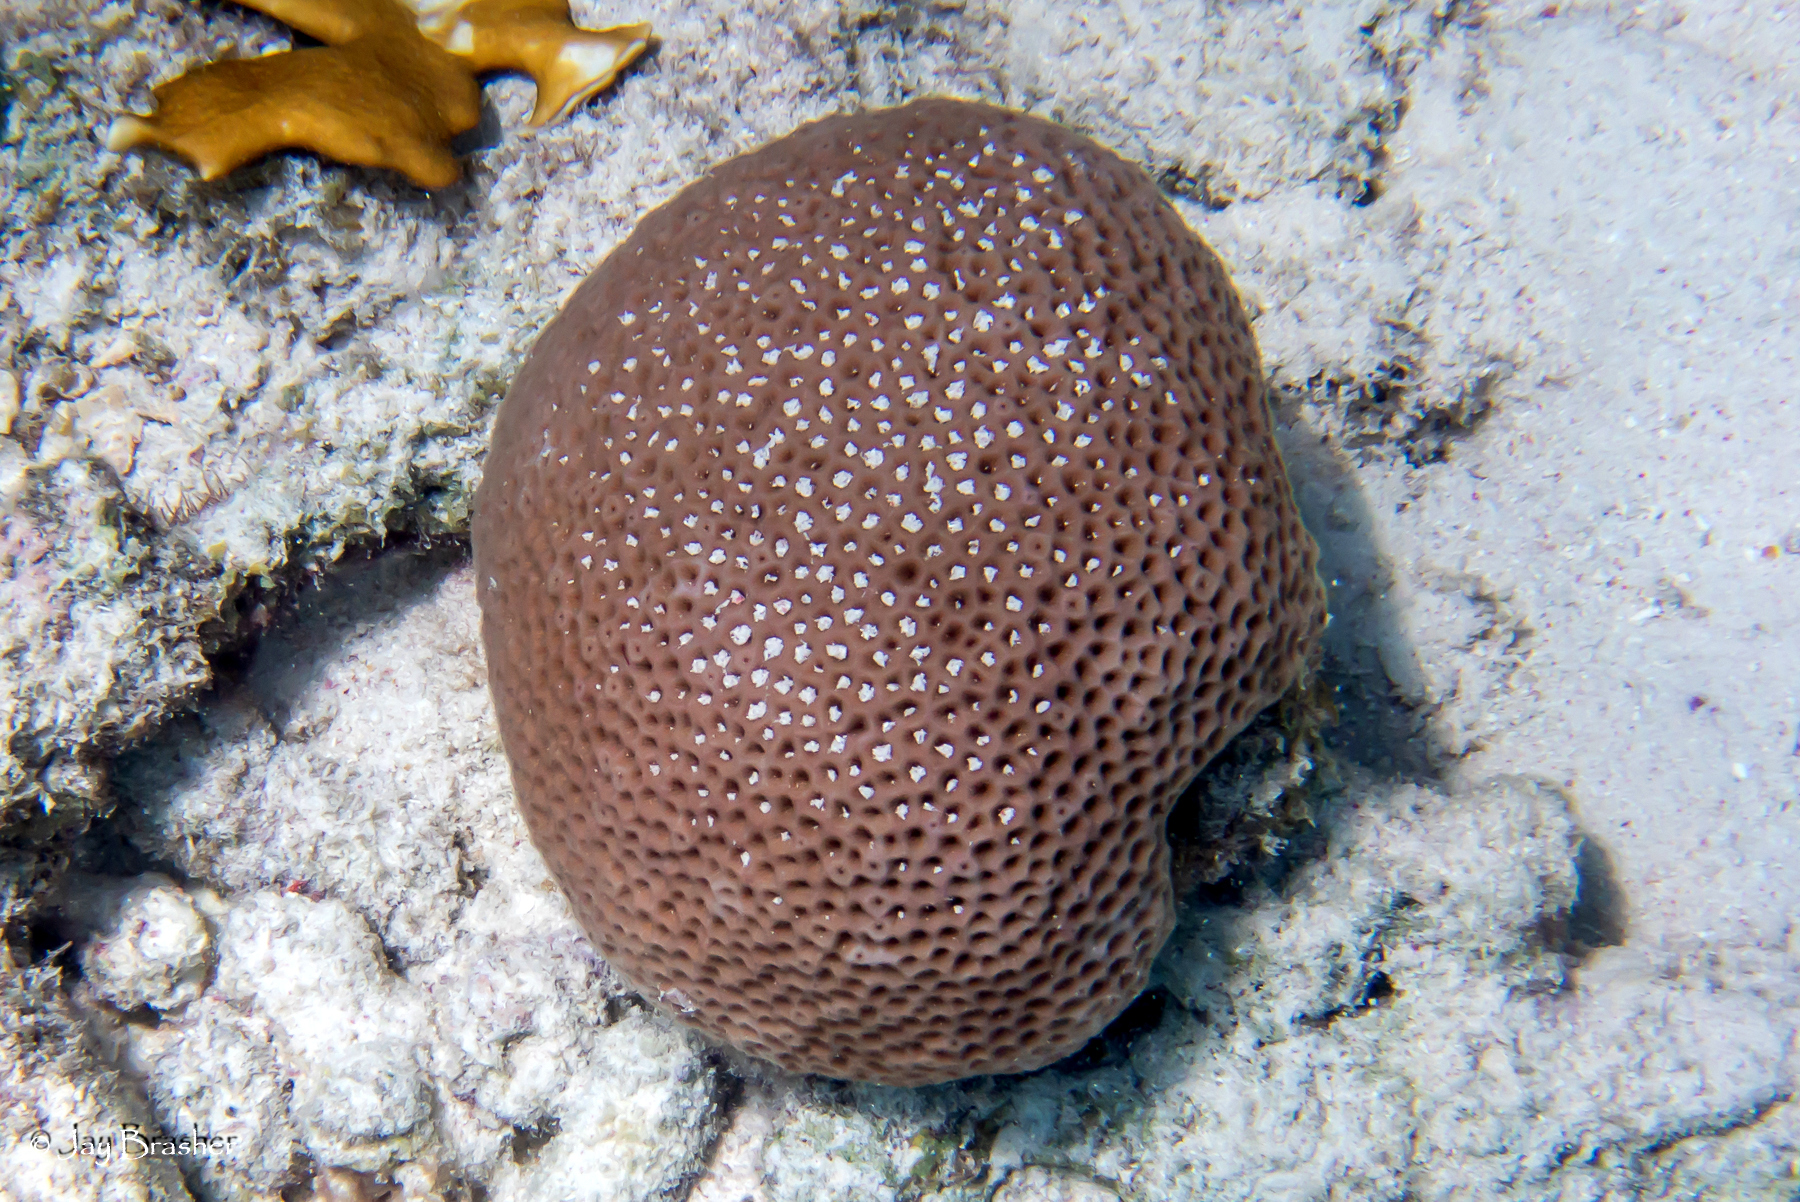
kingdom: Animalia
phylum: Cnidaria
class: Anthozoa
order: Scleractinia
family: Rhizangiidae
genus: Siderastrea
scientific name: Siderastrea siderea
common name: Massive starlet coral
